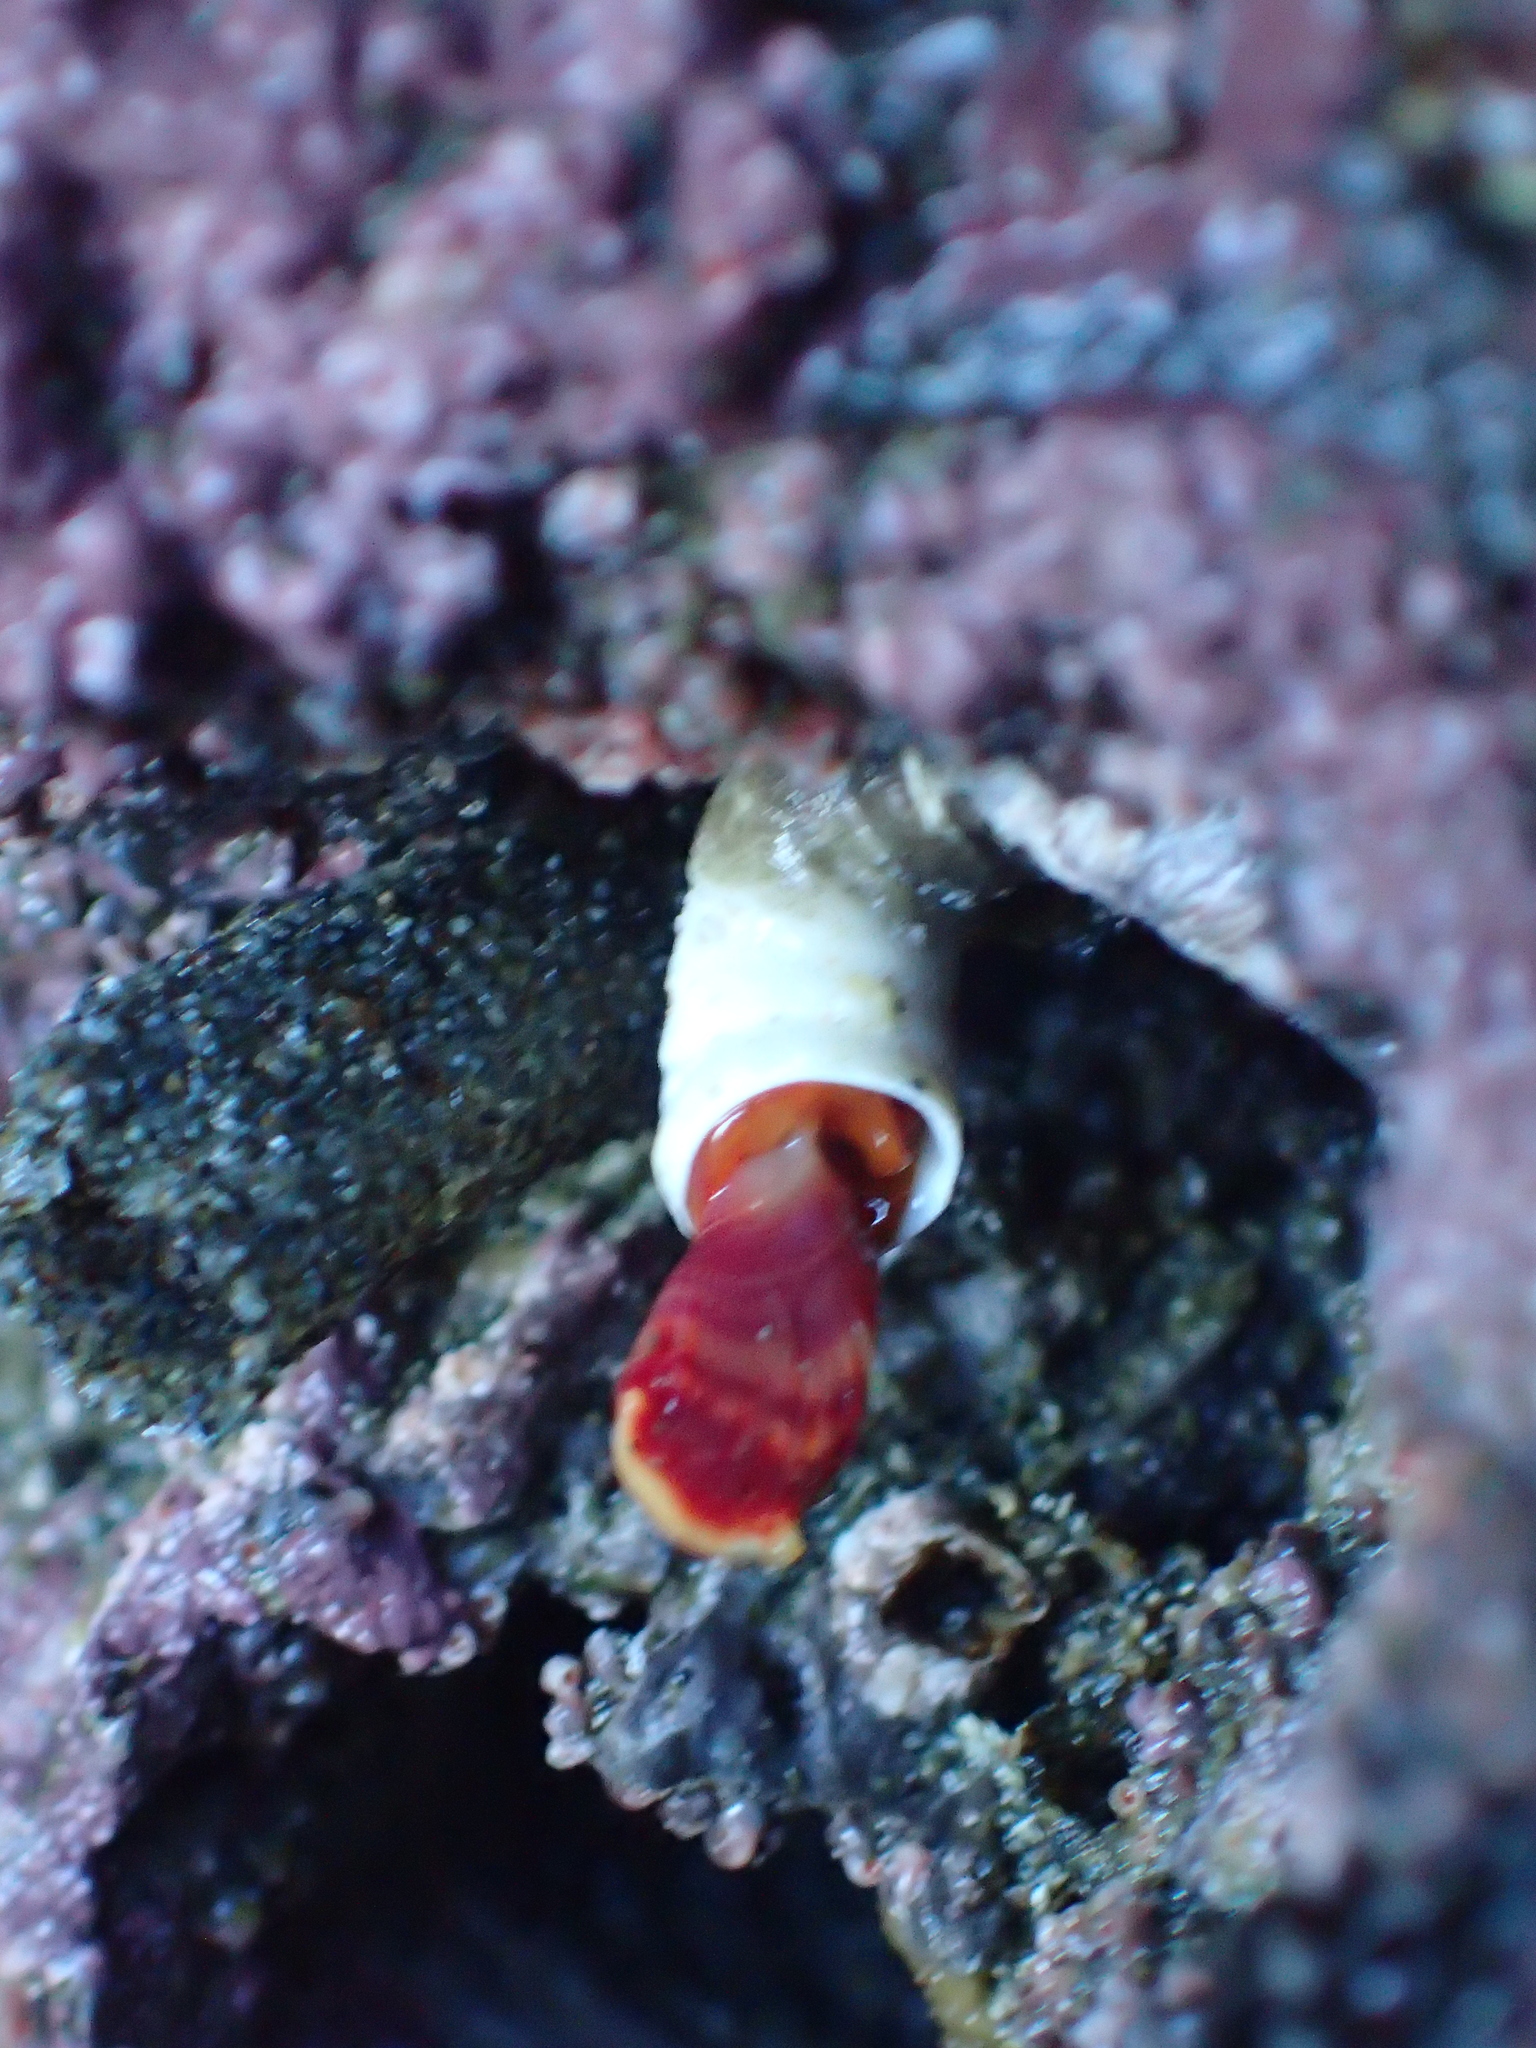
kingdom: Animalia
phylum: Annelida
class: Polychaeta
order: Sabellida
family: Serpulidae
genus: Serpula
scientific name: Serpula columbiana
